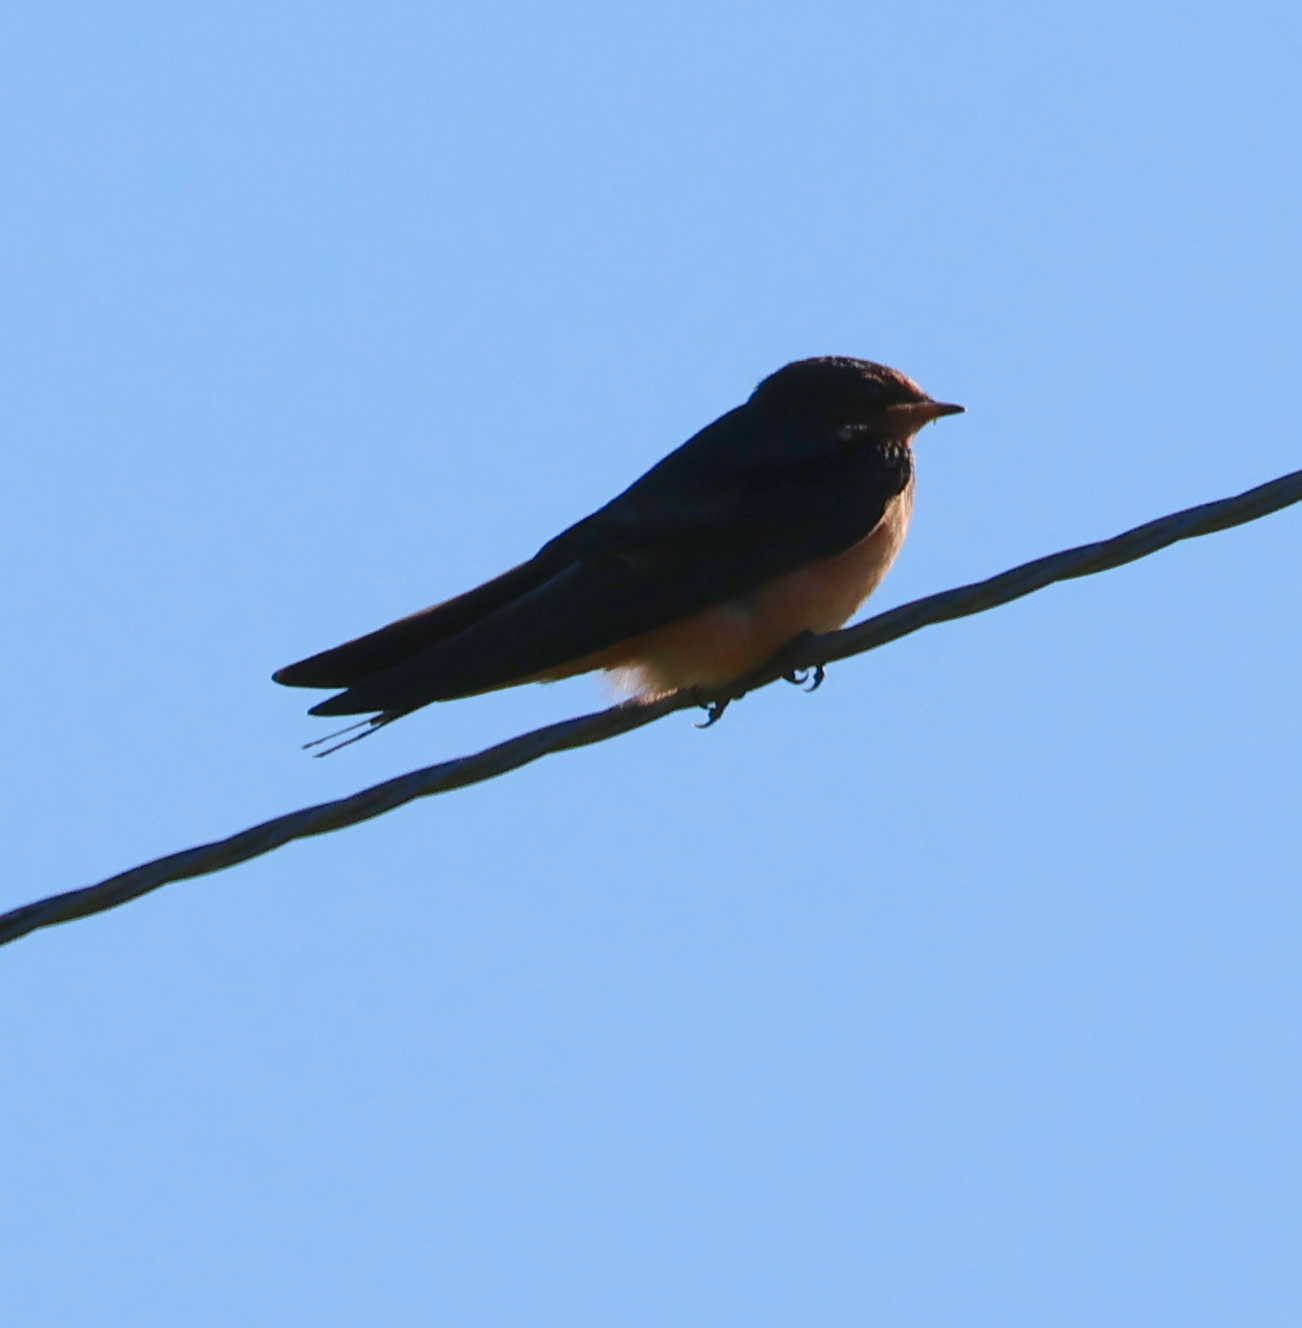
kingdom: Animalia
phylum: Chordata
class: Aves
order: Passeriformes
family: Hirundinidae
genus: Hirundo
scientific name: Hirundo rustica
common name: Barn swallow
